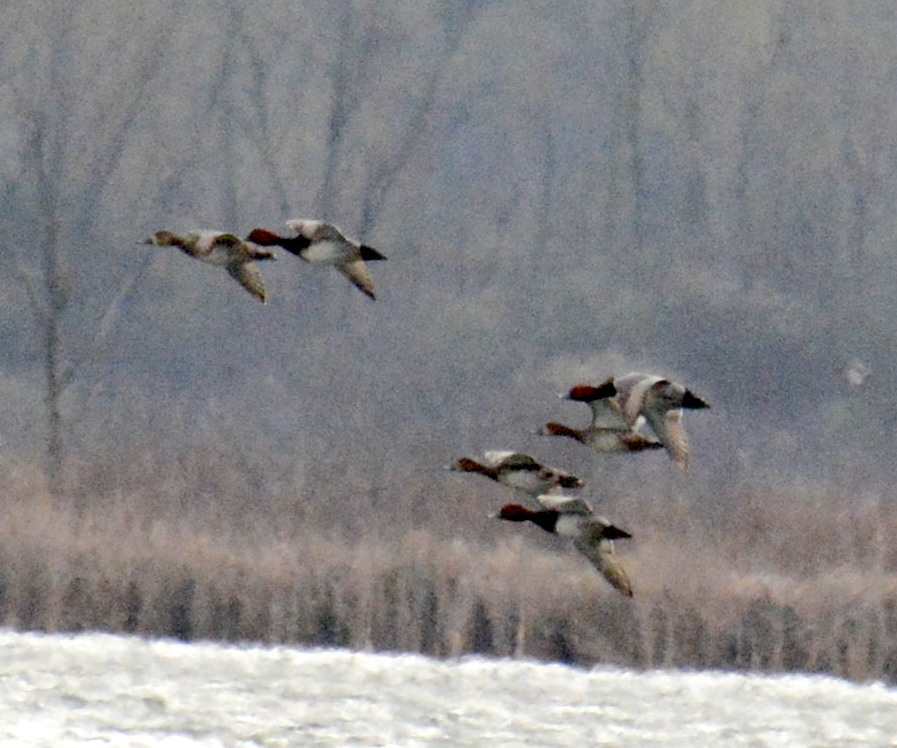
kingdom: Animalia
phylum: Chordata
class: Aves
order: Anseriformes
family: Anatidae
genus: Aythya
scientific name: Aythya americana
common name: Redhead
